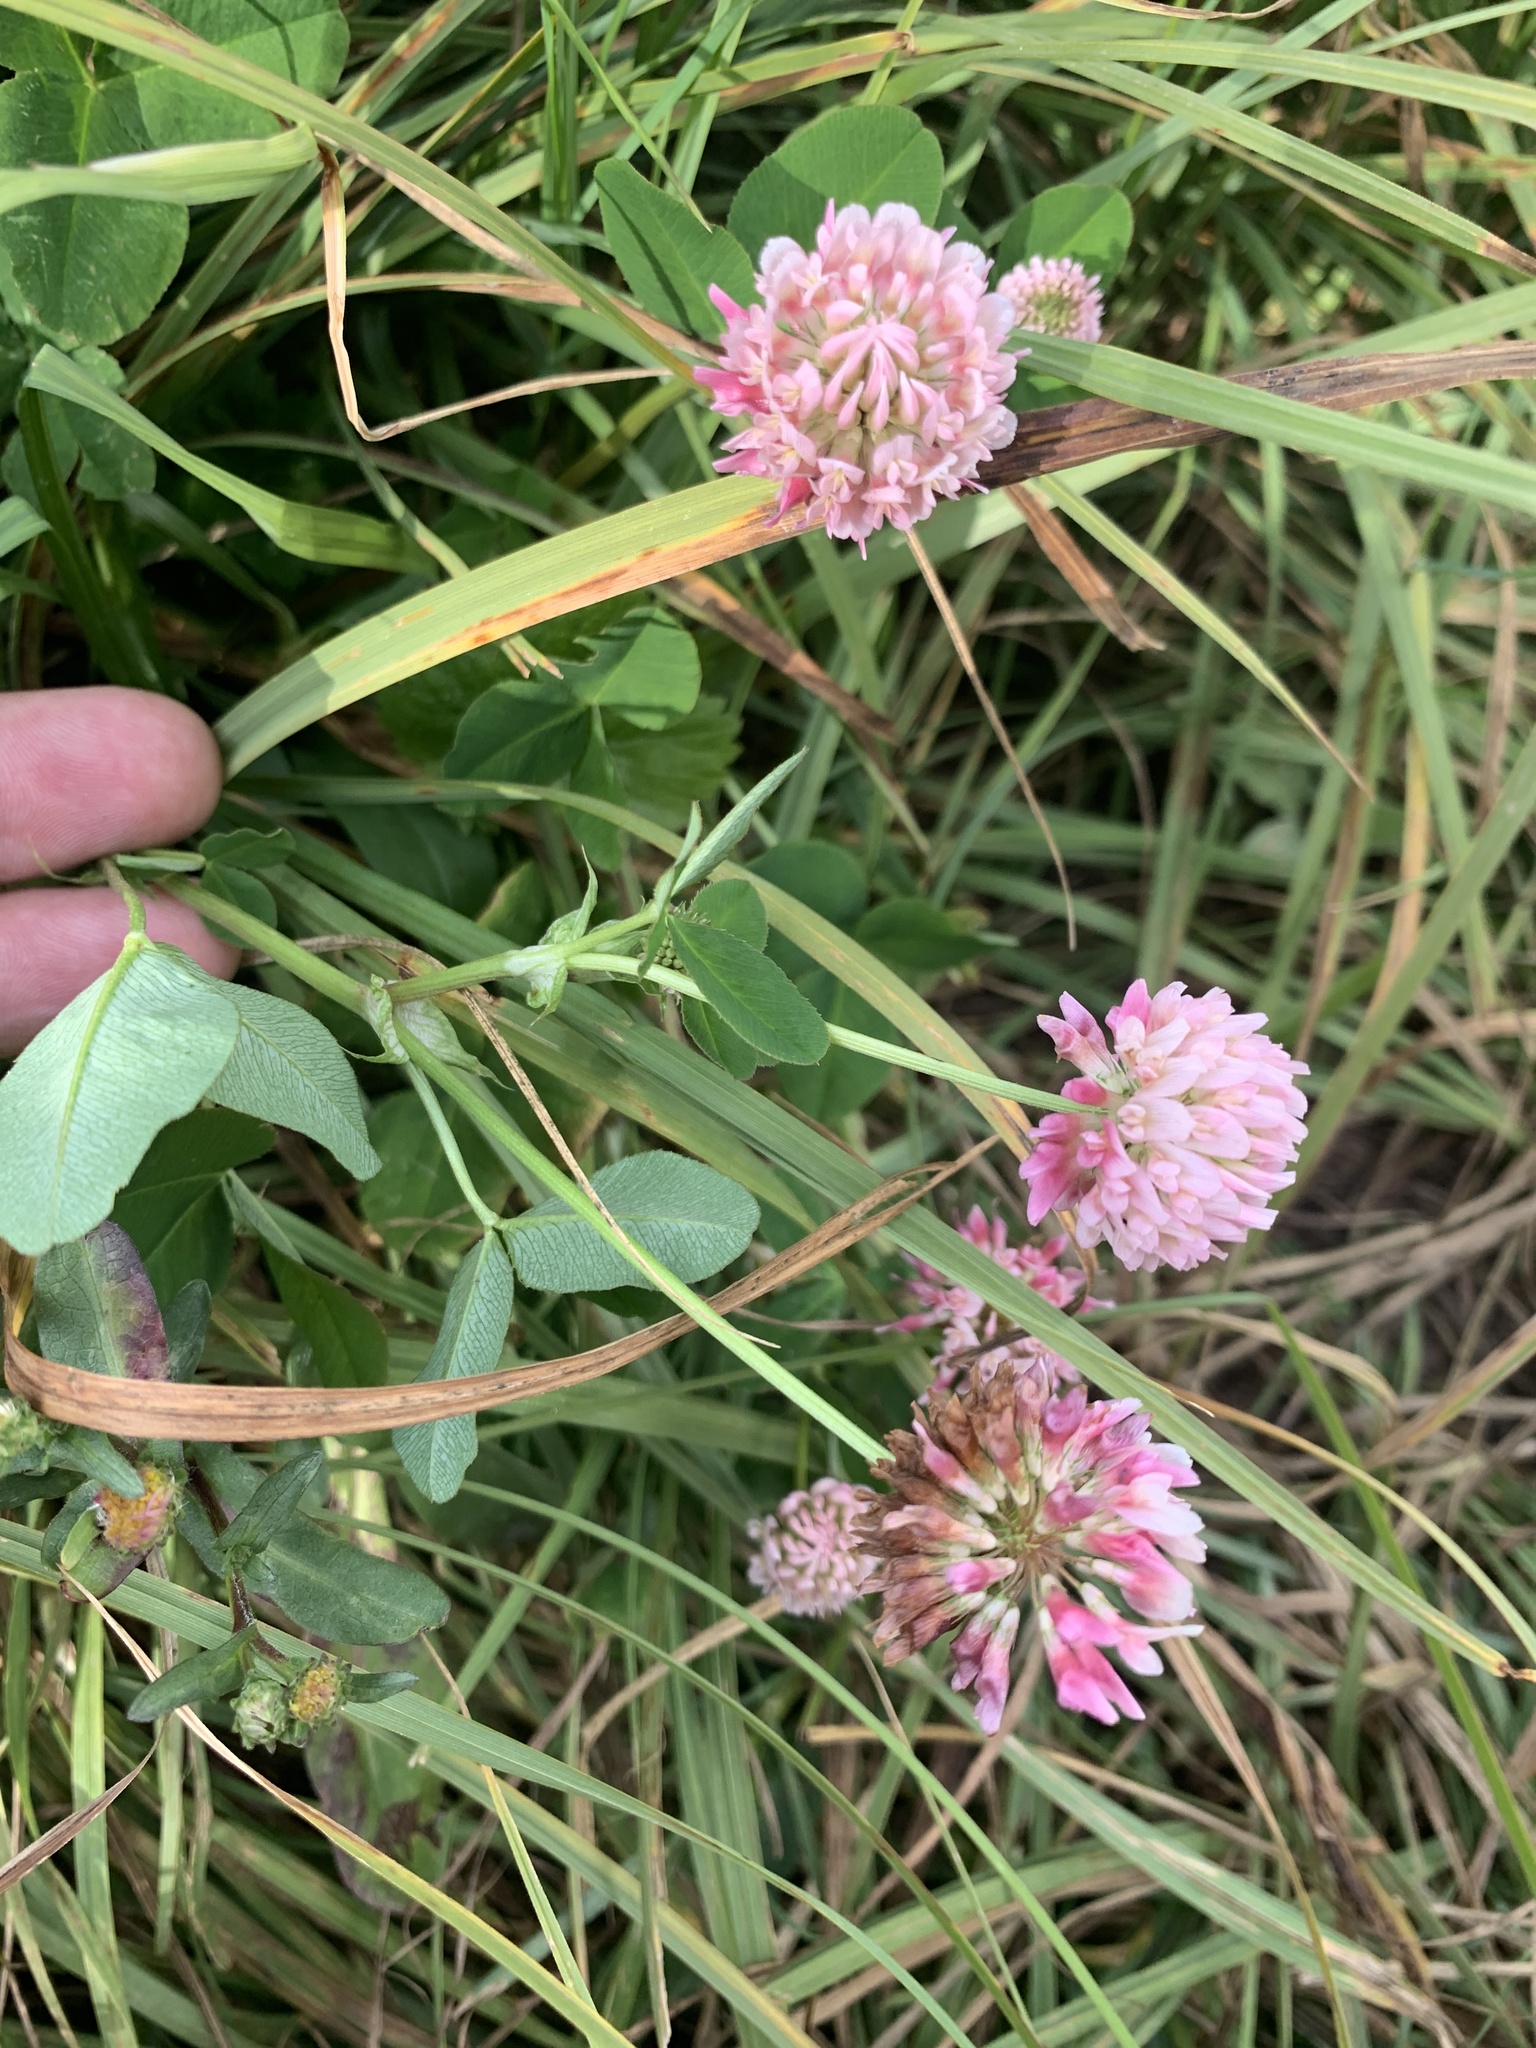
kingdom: Plantae
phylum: Tracheophyta
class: Magnoliopsida
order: Fabales
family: Fabaceae
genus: Trifolium
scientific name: Trifolium hybridum
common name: Alsike clover
